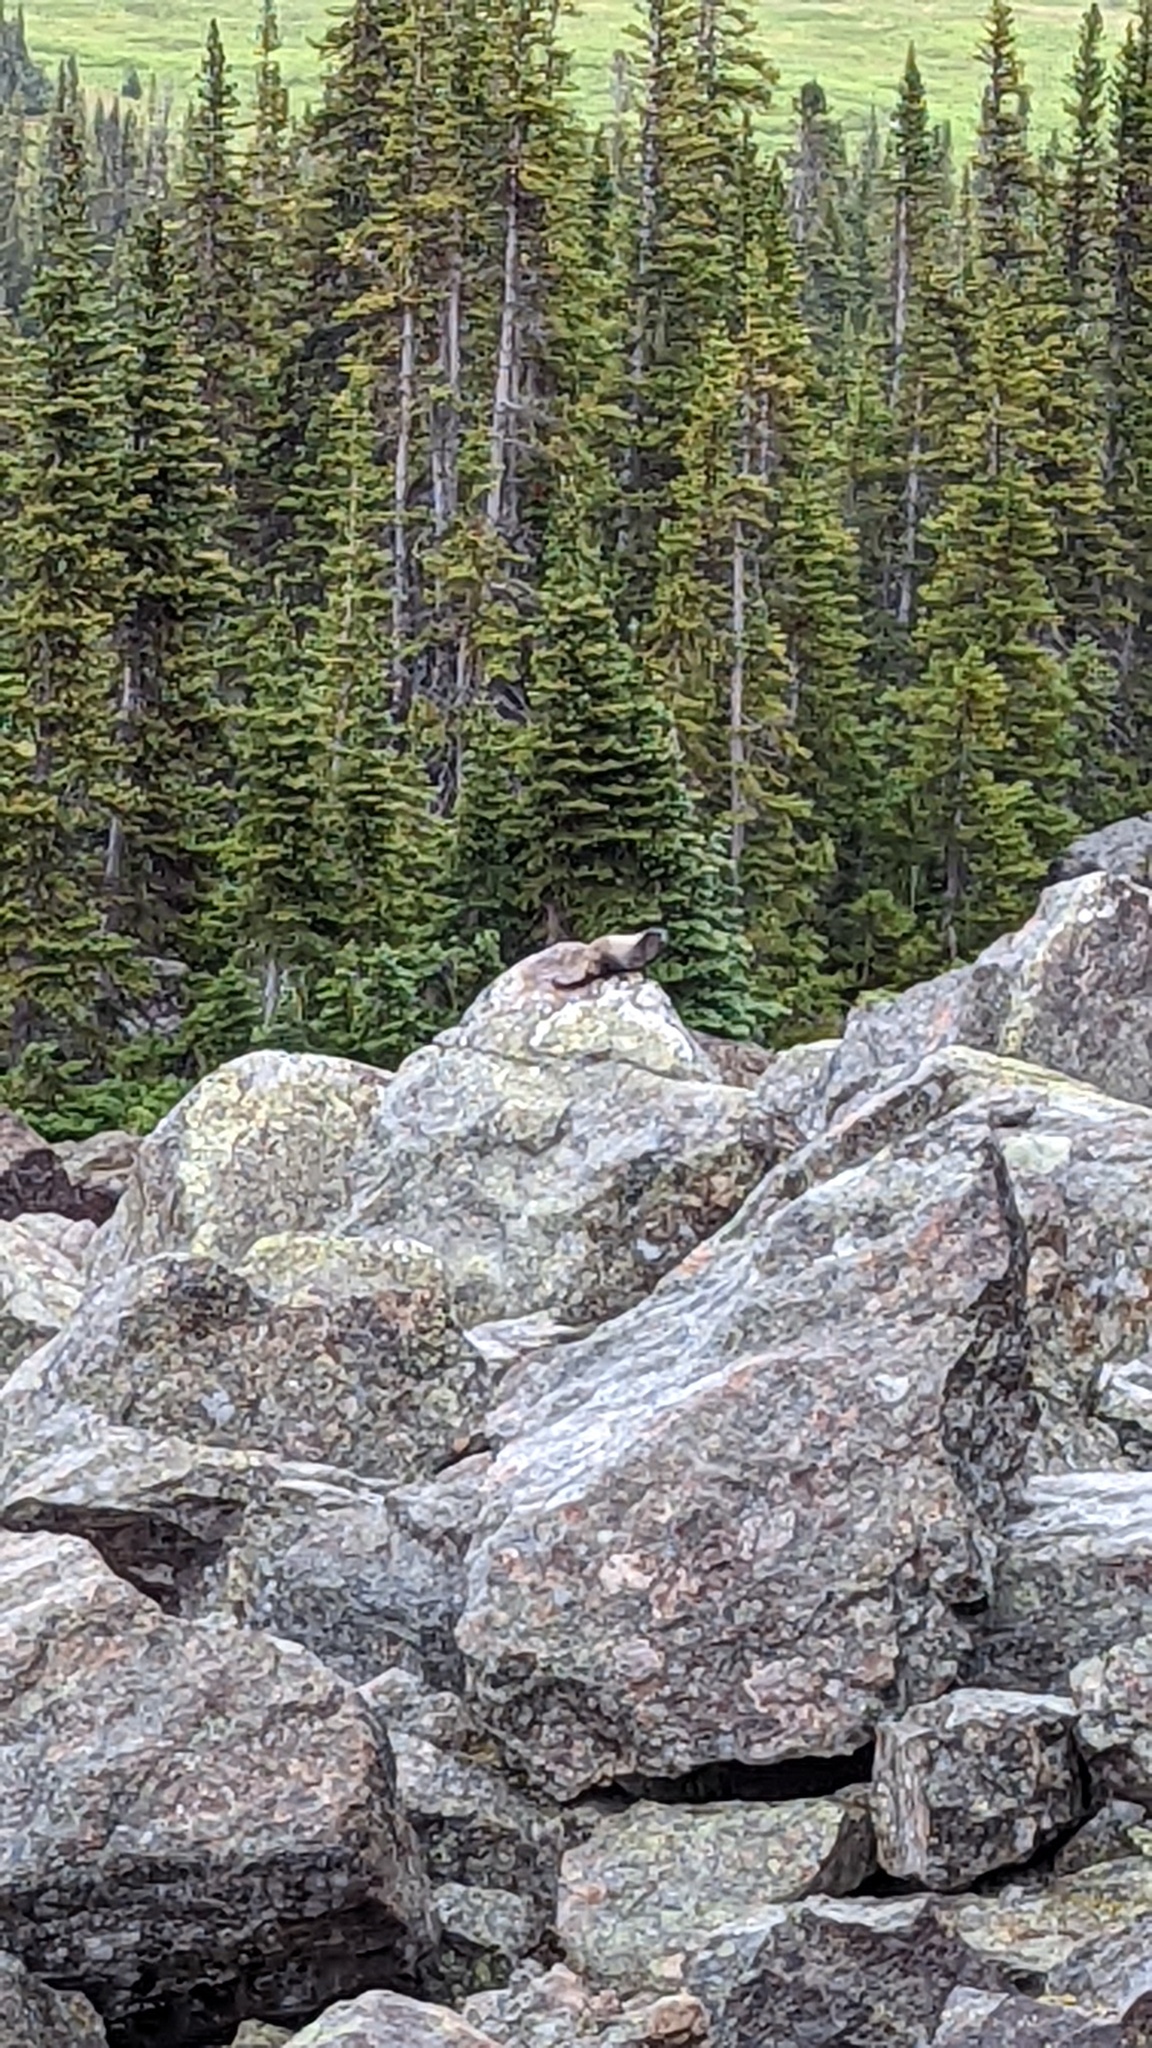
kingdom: Animalia
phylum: Chordata
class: Mammalia
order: Rodentia
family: Sciuridae
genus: Marmota
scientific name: Marmota caligata
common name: Hoary marmot
